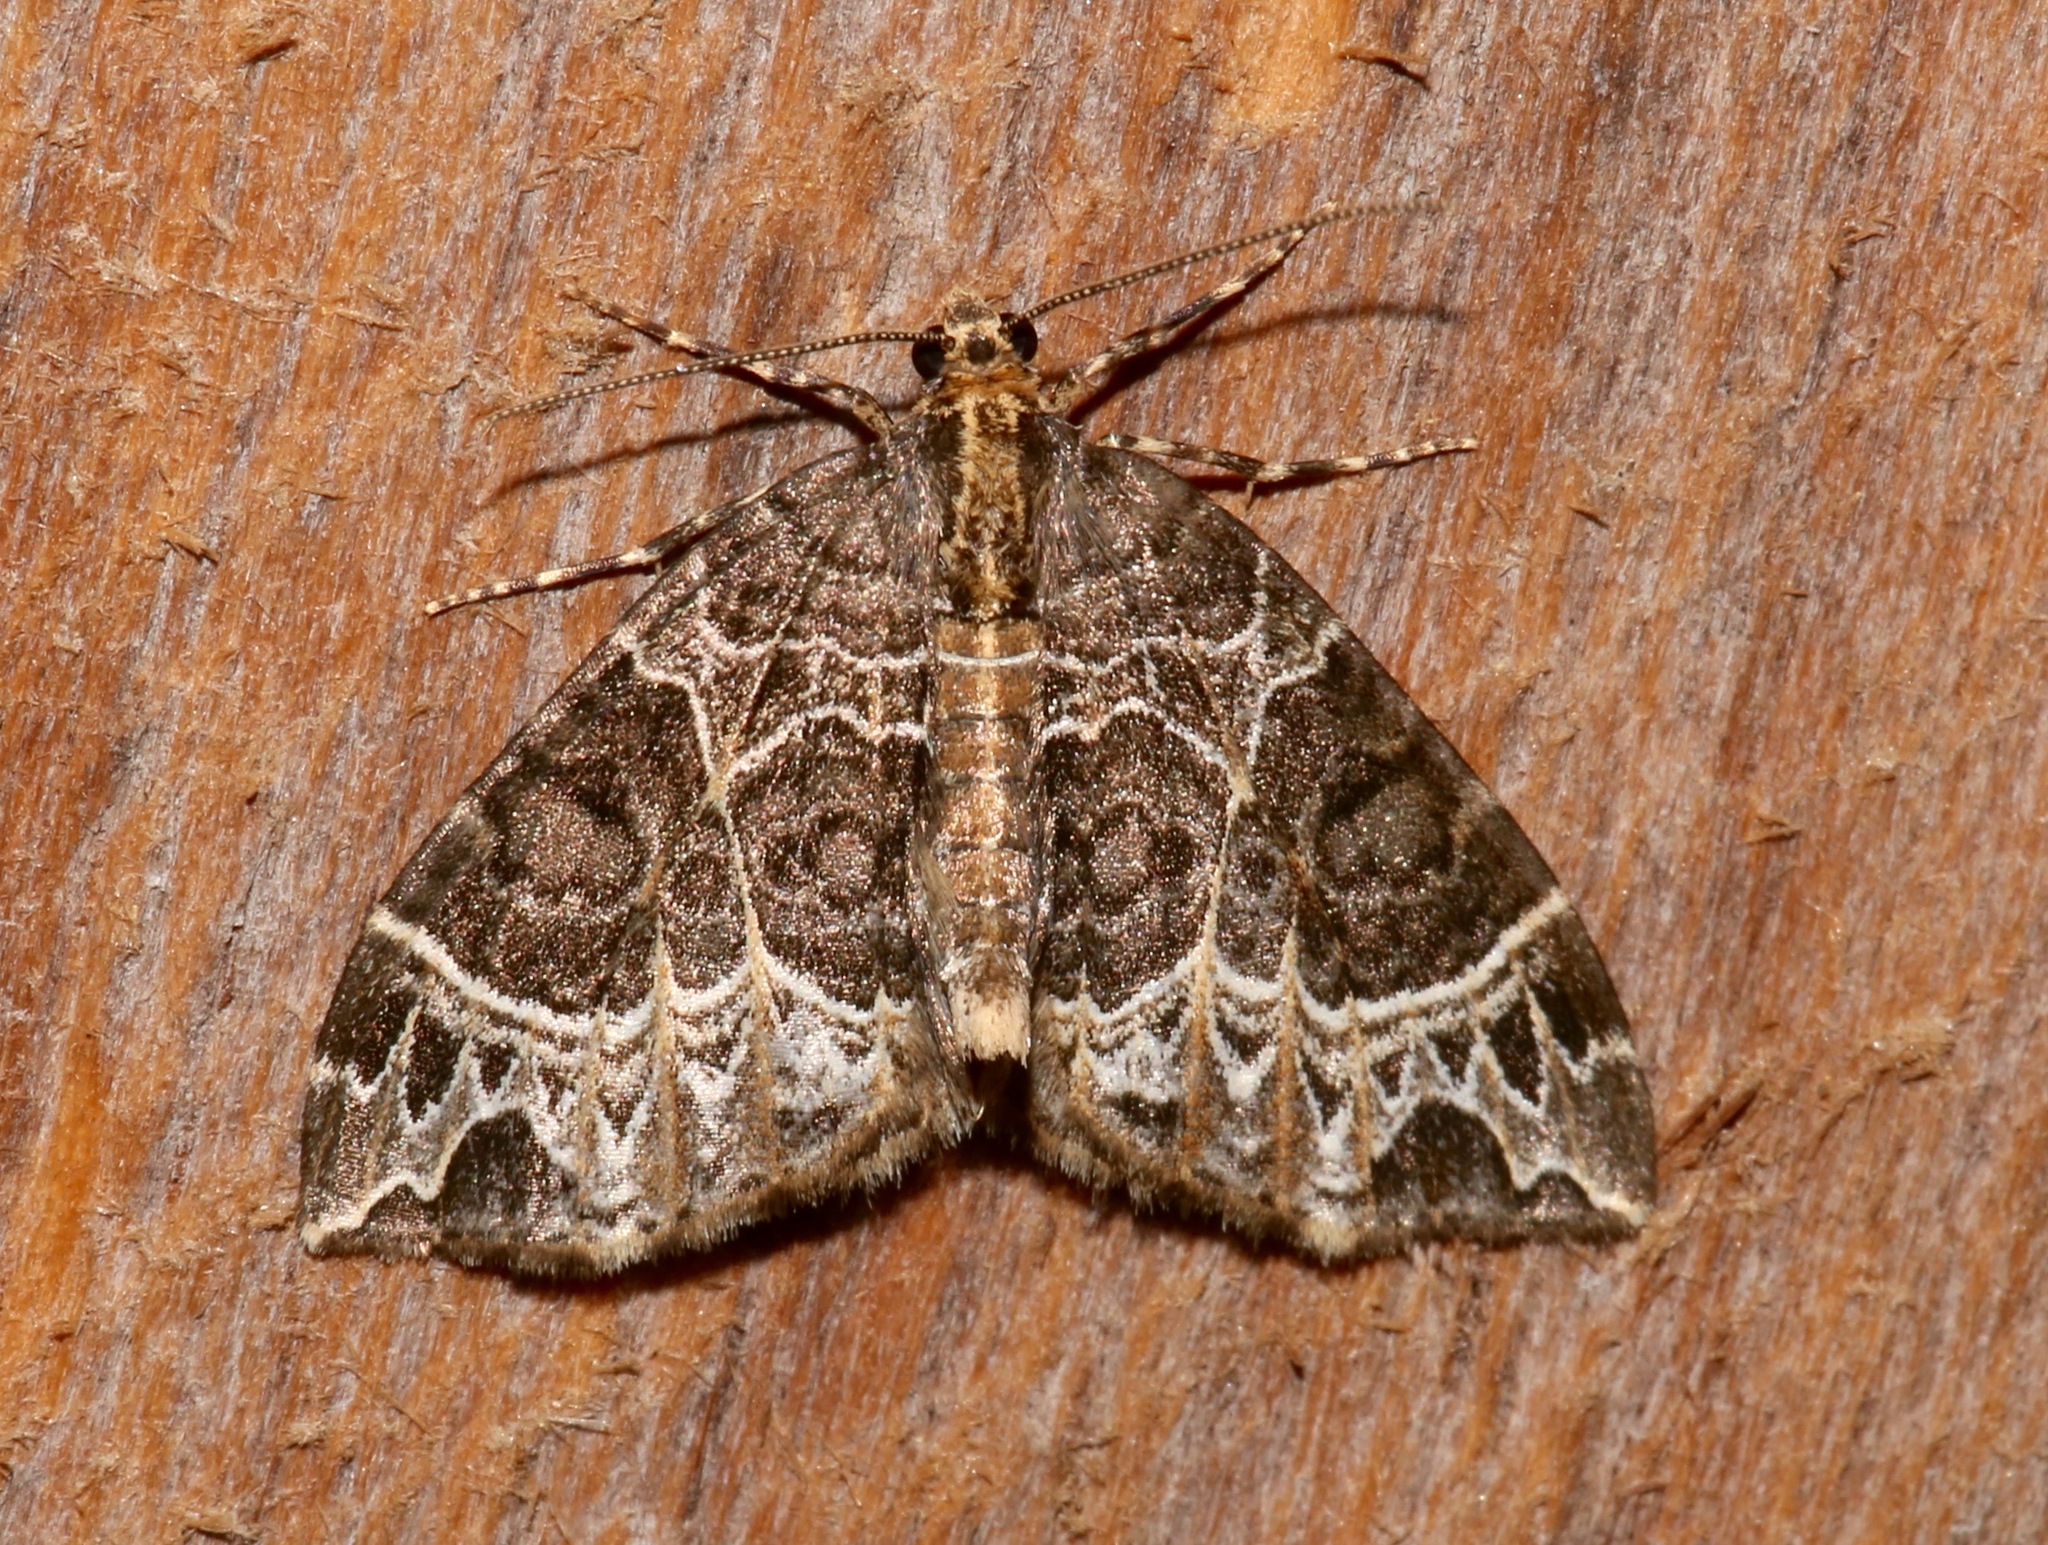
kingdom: Animalia
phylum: Arthropoda
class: Insecta
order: Lepidoptera
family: Geometridae
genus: Ecliptopera
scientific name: Ecliptopera silaceata
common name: Small phoenix
